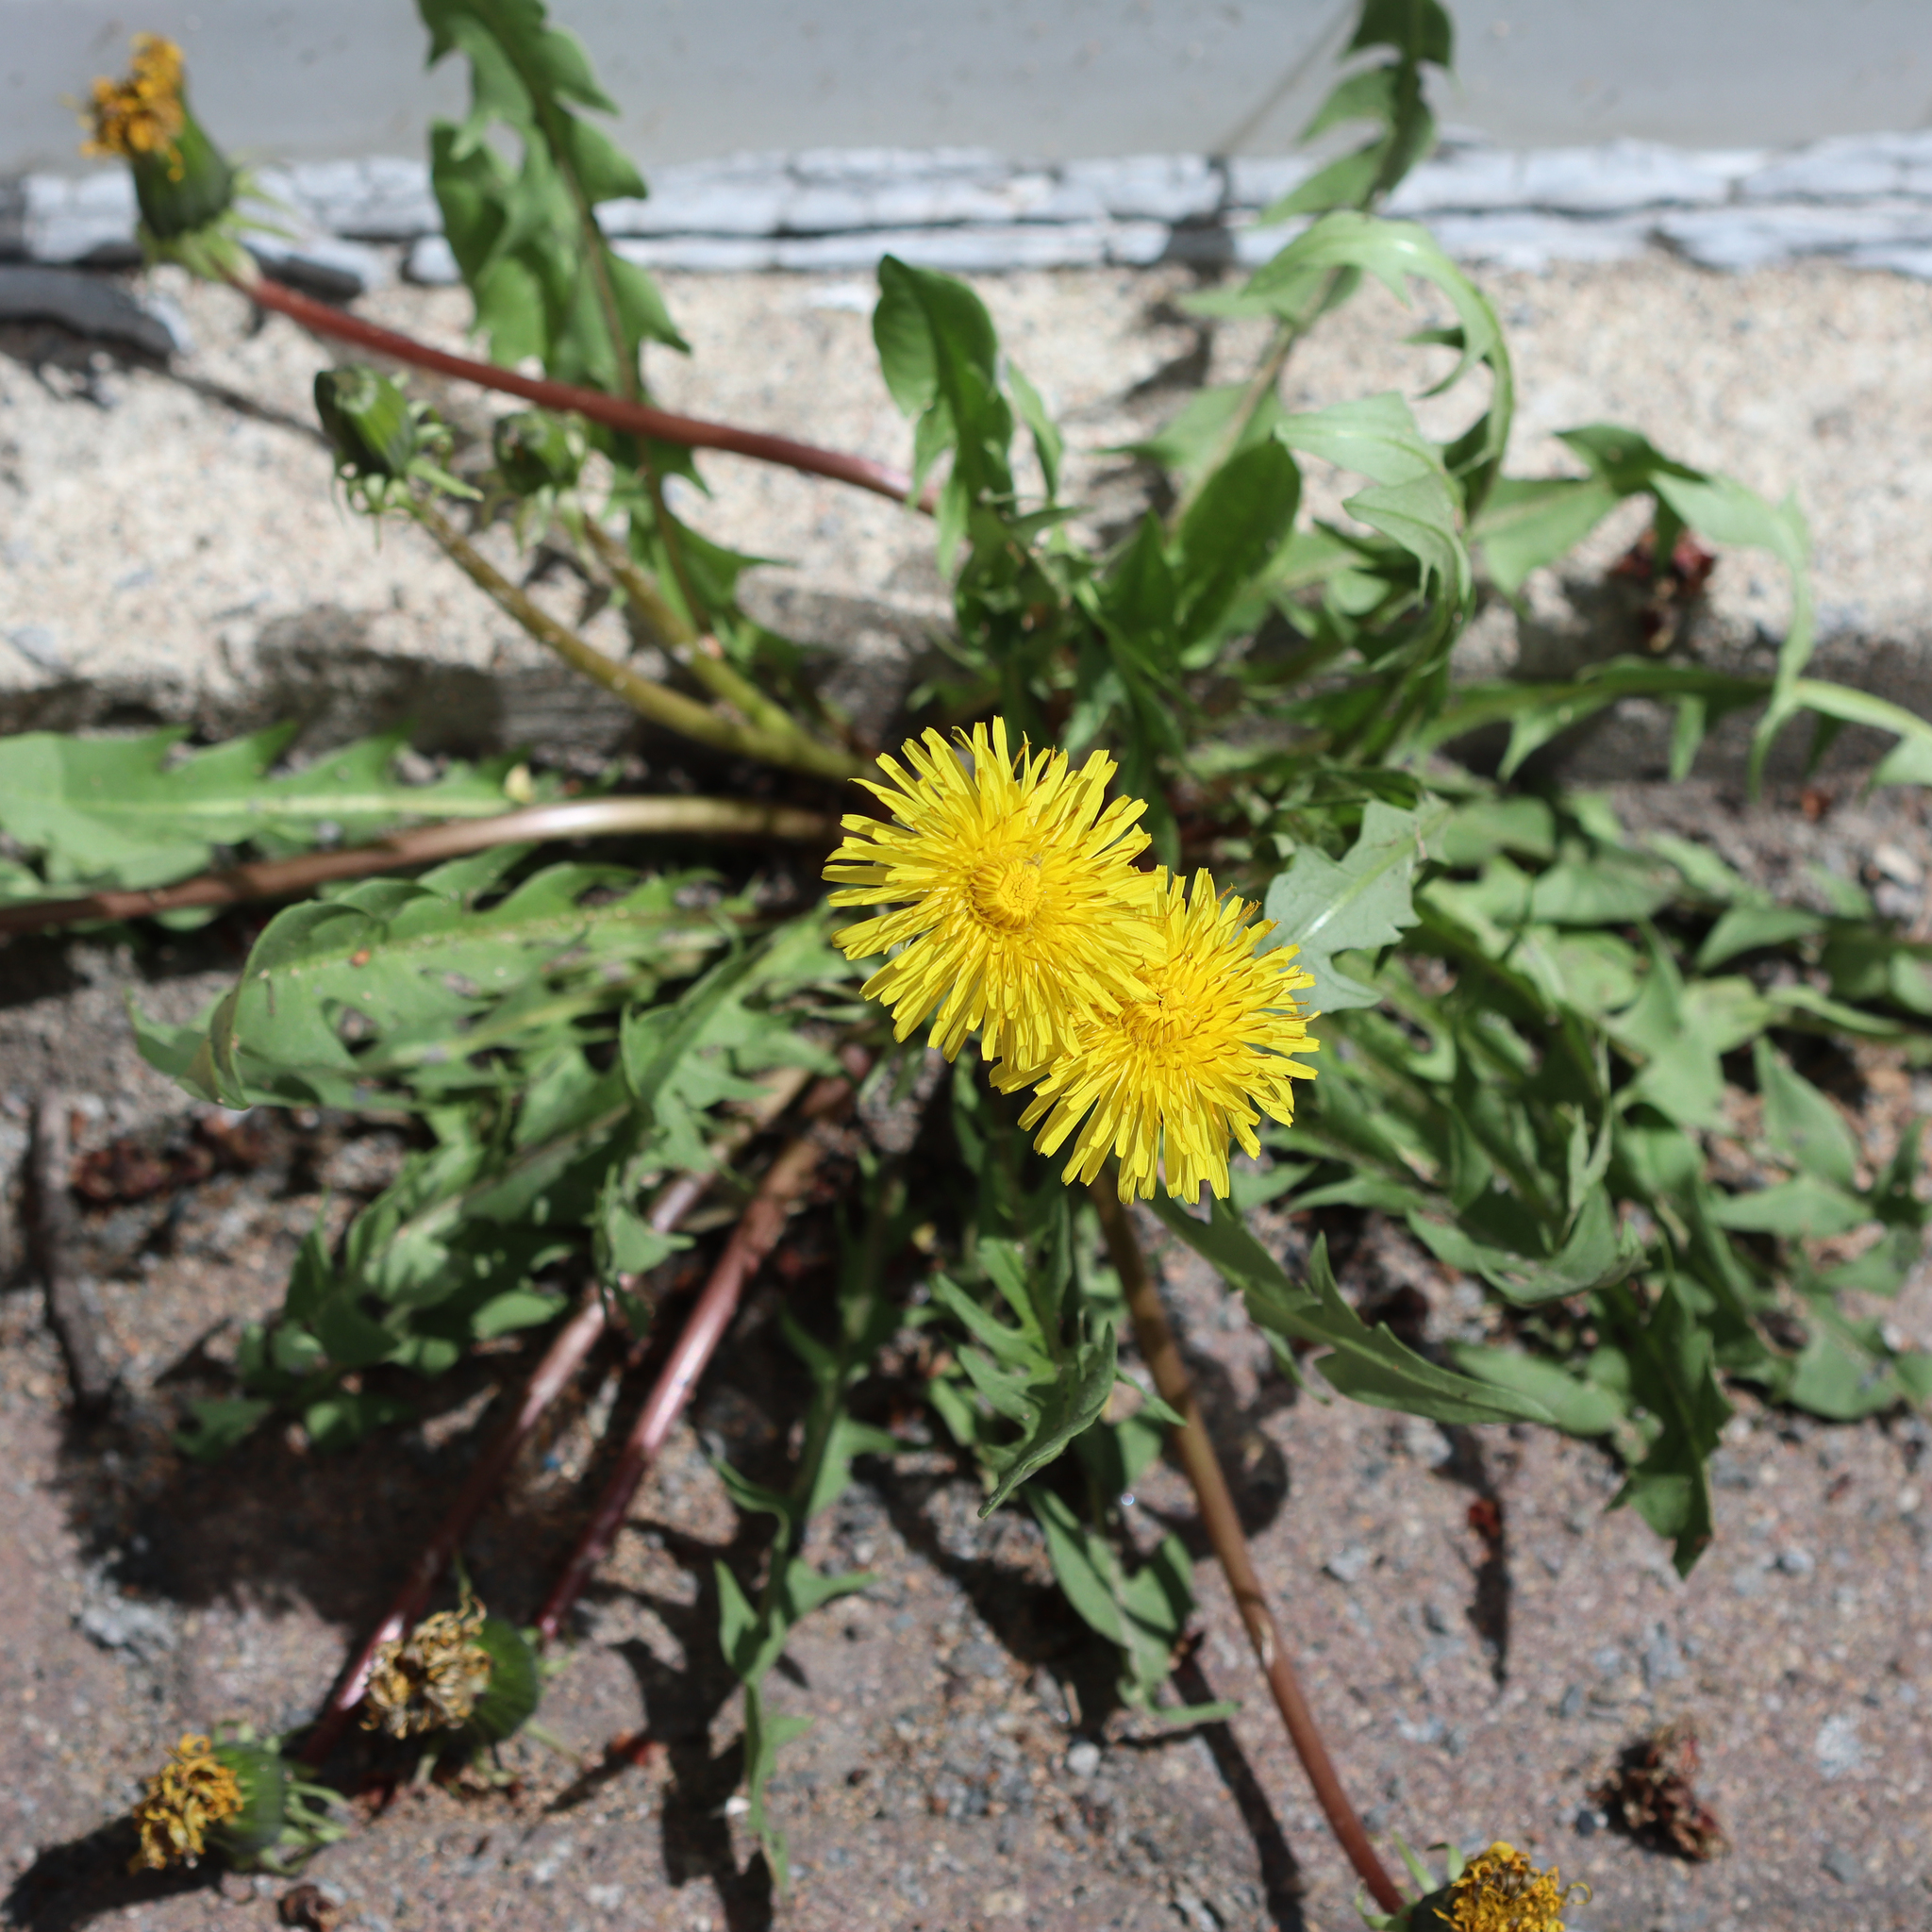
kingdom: Plantae
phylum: Tracheophyta
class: Magnoliopsida
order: Asterales
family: Asteraceae
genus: Taraxacum
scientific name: Taraxacum officinale
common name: Common dandelion
